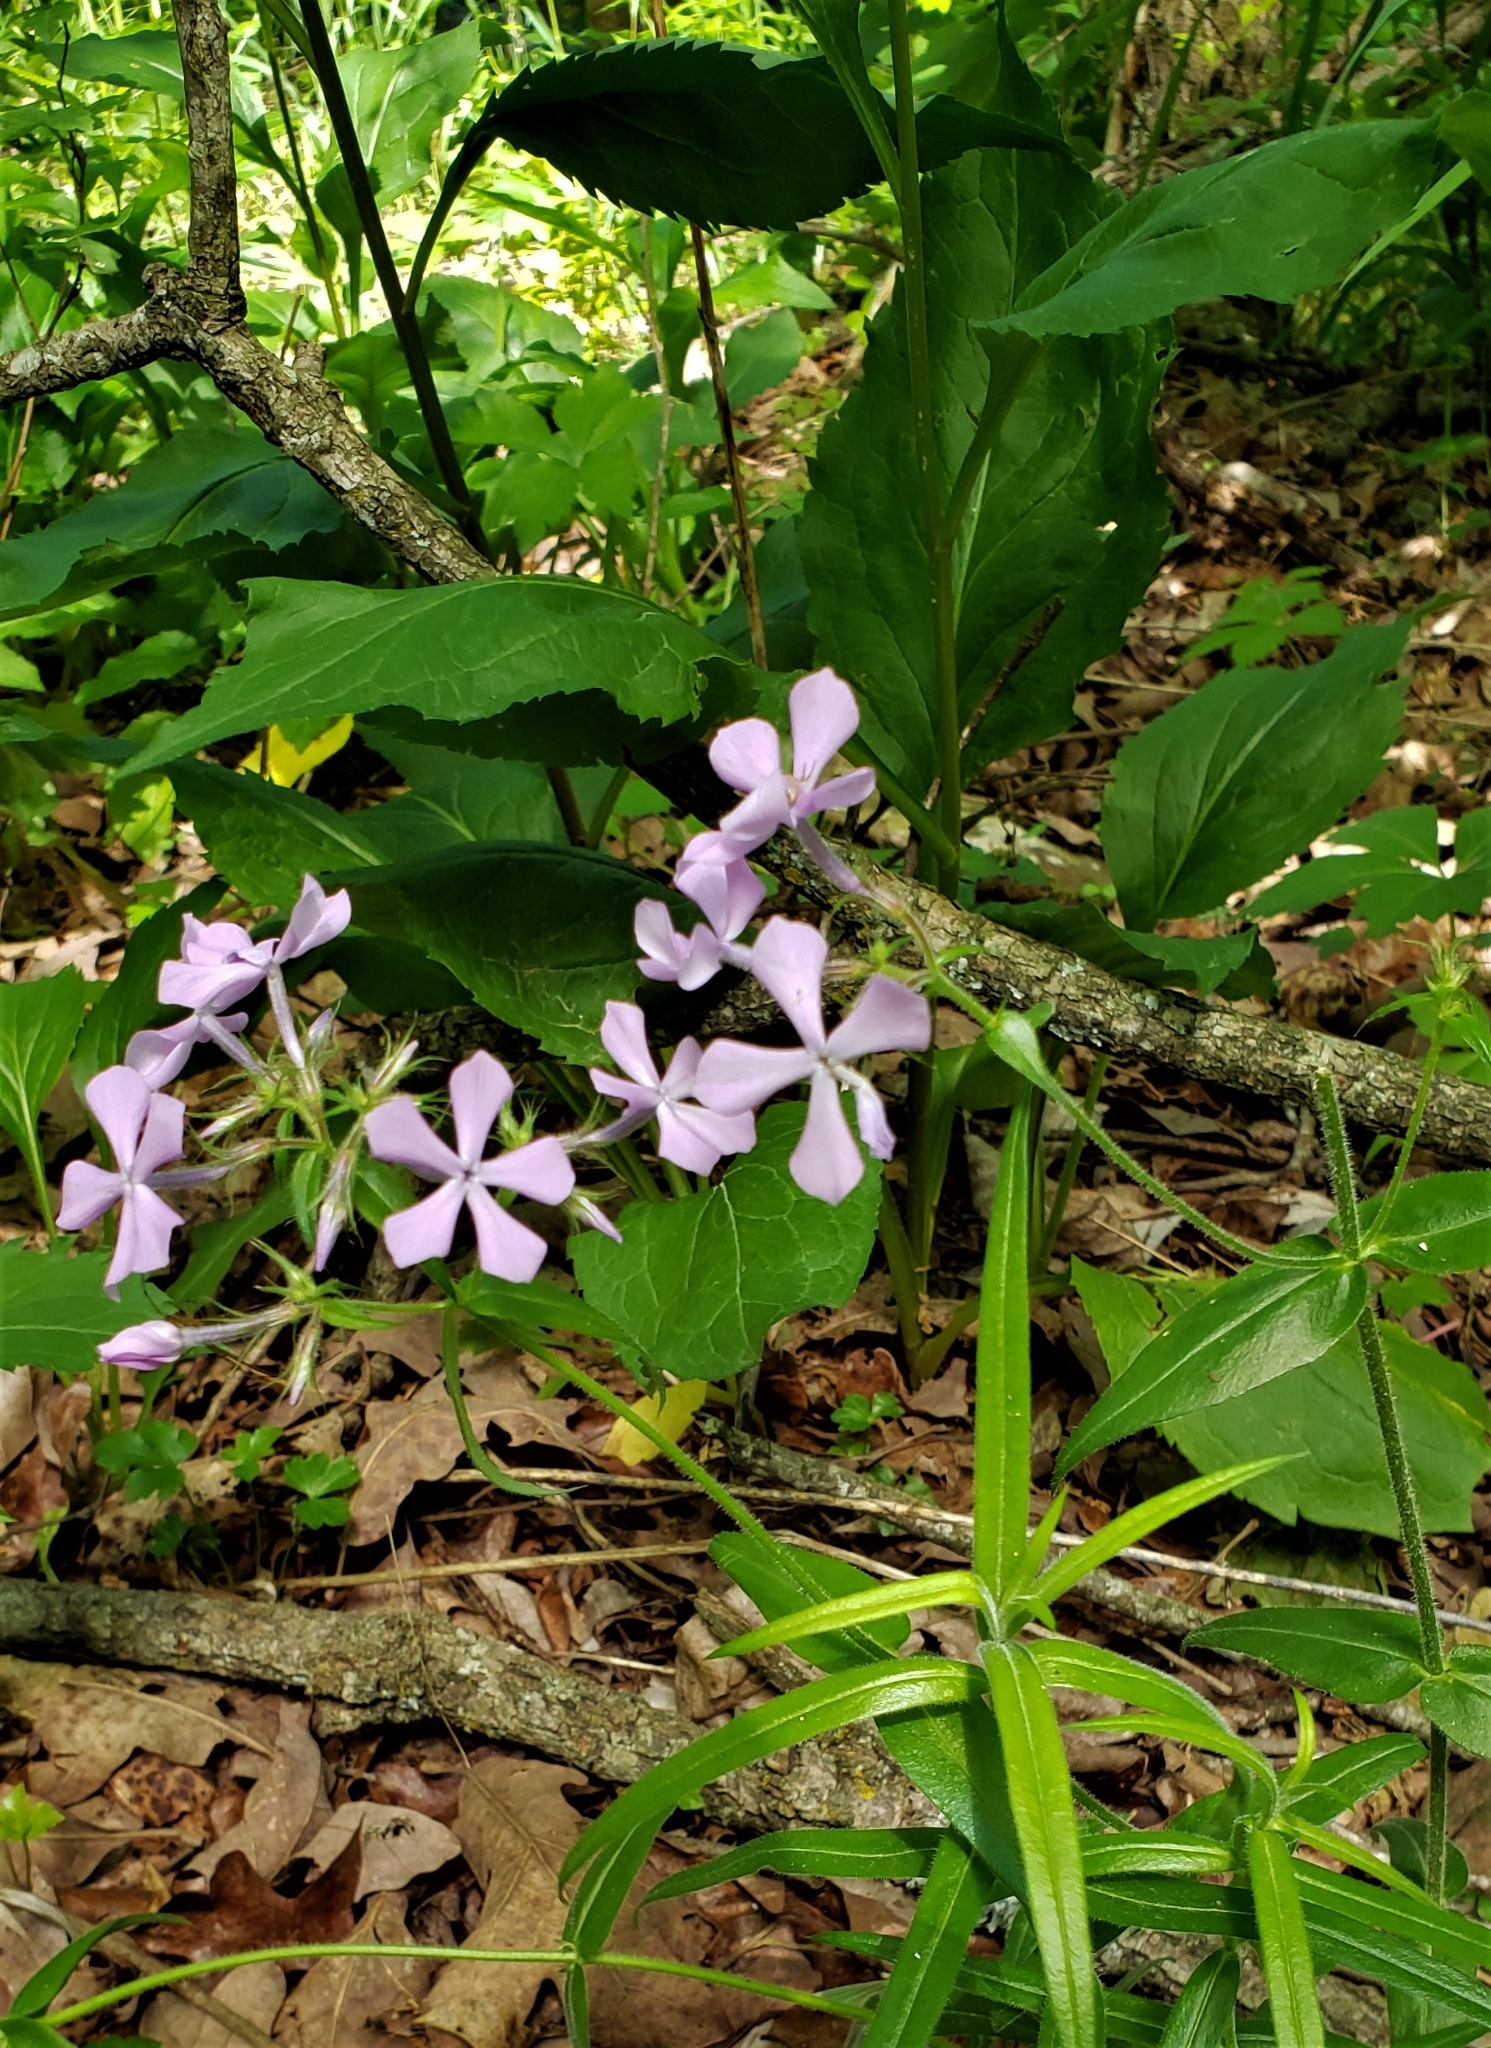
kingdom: Plantae
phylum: Tracheophyta
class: Magnoliopsida
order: Ericales
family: Polemoniaceae
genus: Phlox
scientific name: Phlox pilosa
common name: Prairie phlox
